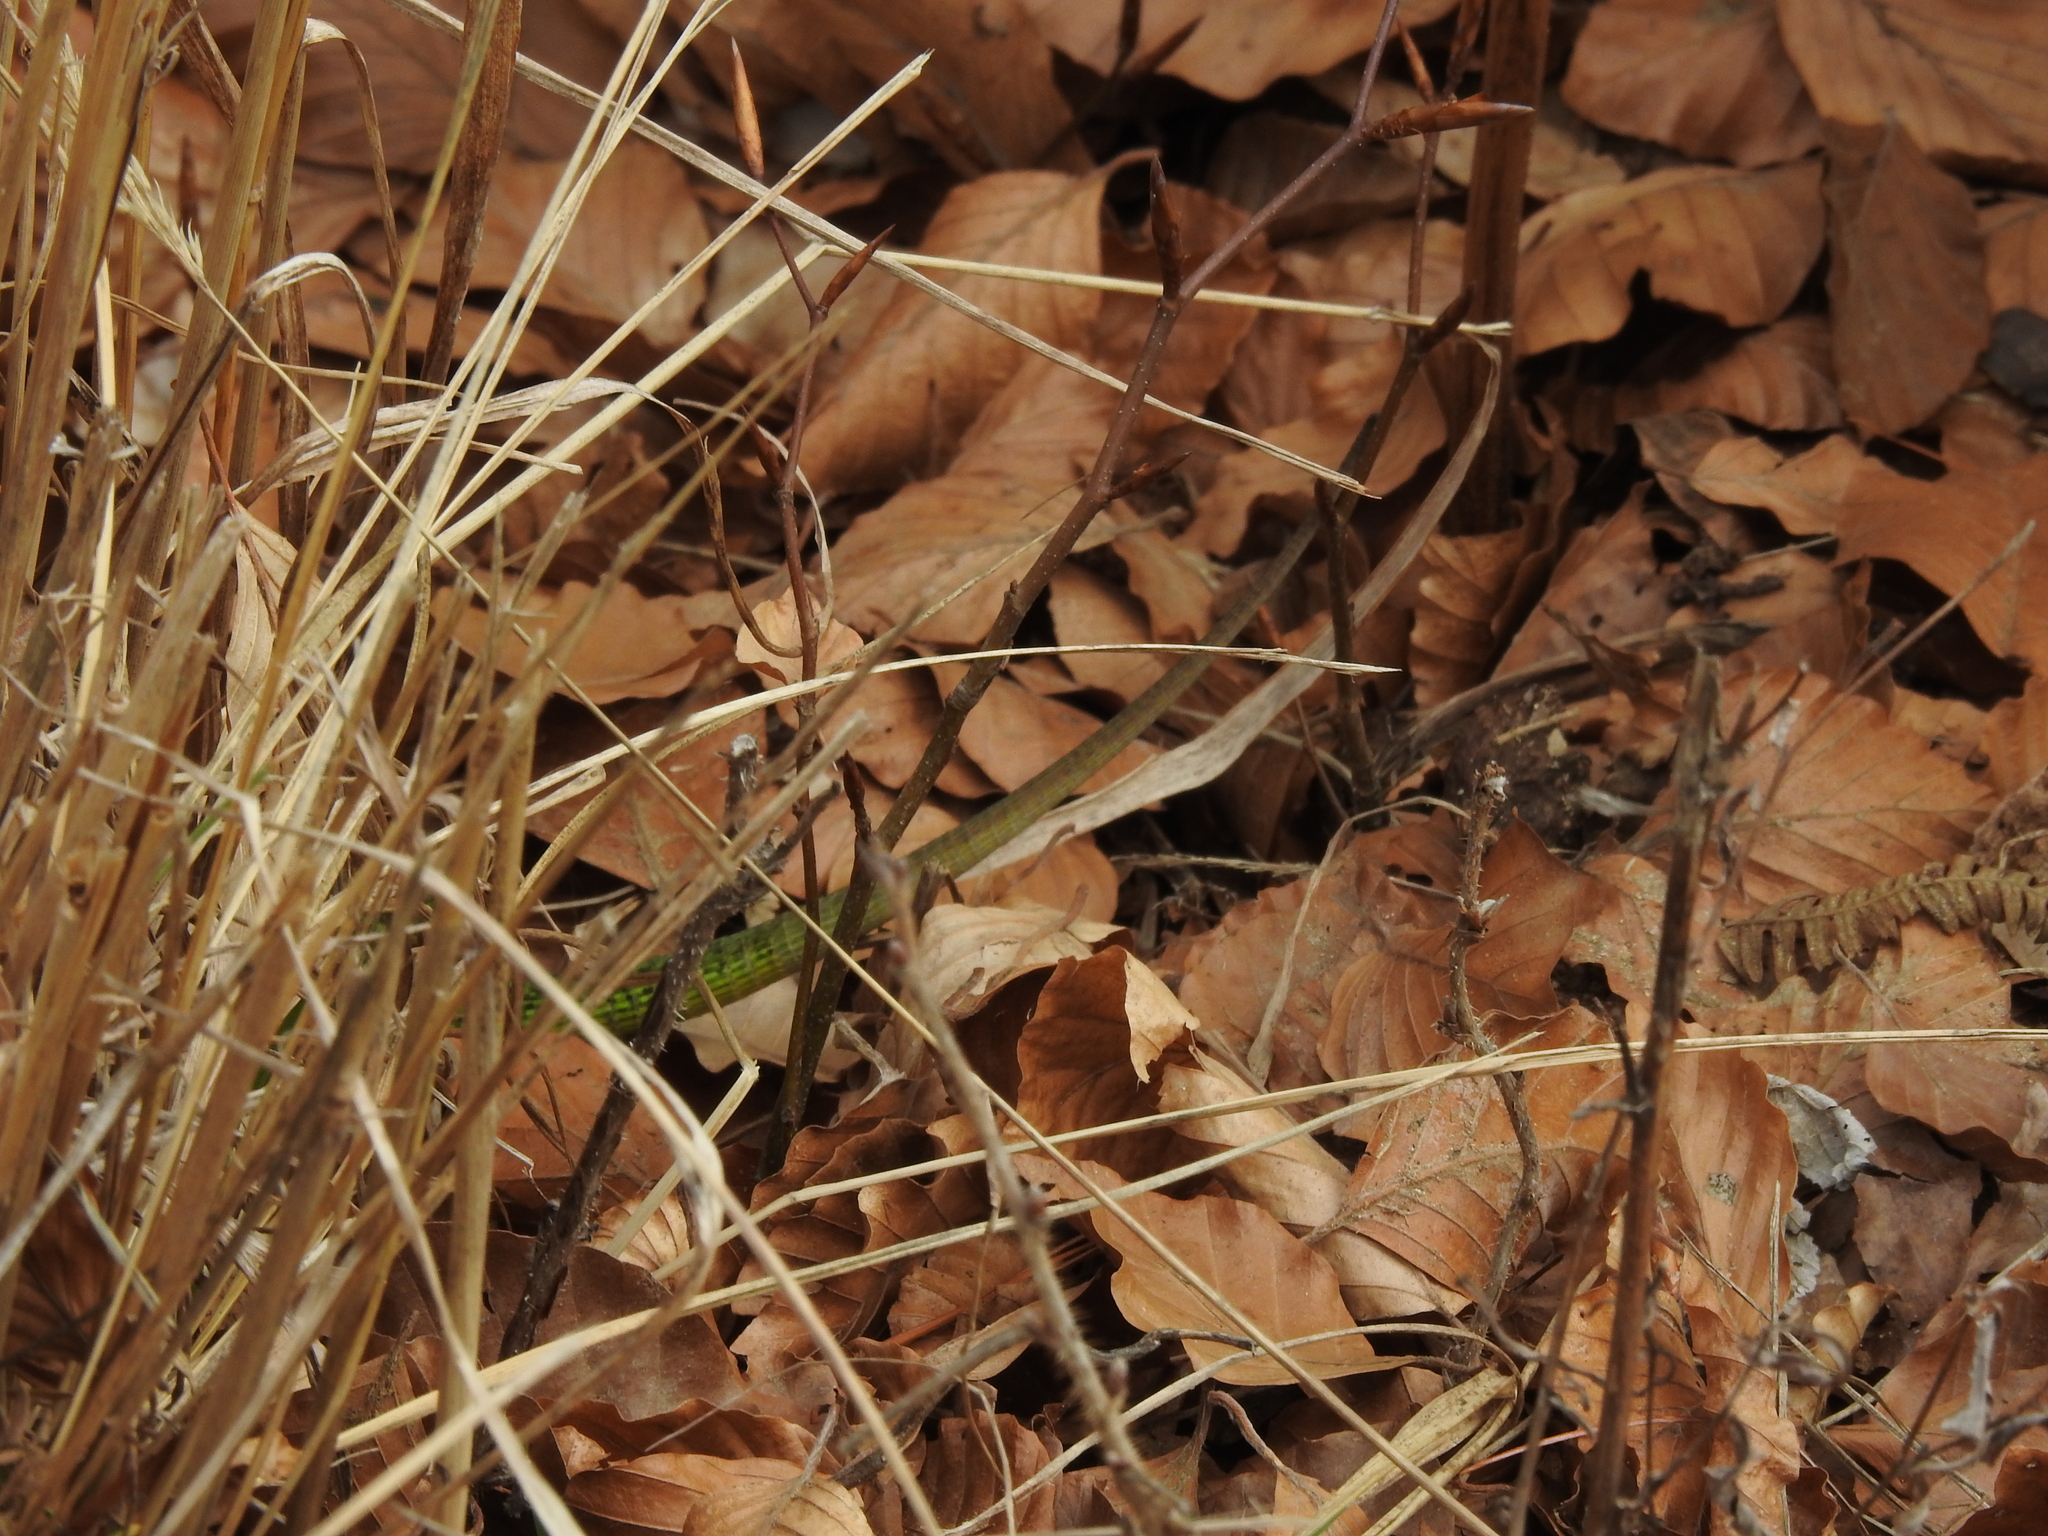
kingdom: Animalia
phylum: Chordata
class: Squamata
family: Lacertidae
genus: Lacerta
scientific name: Lacerta bilineata
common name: Western green lizard
